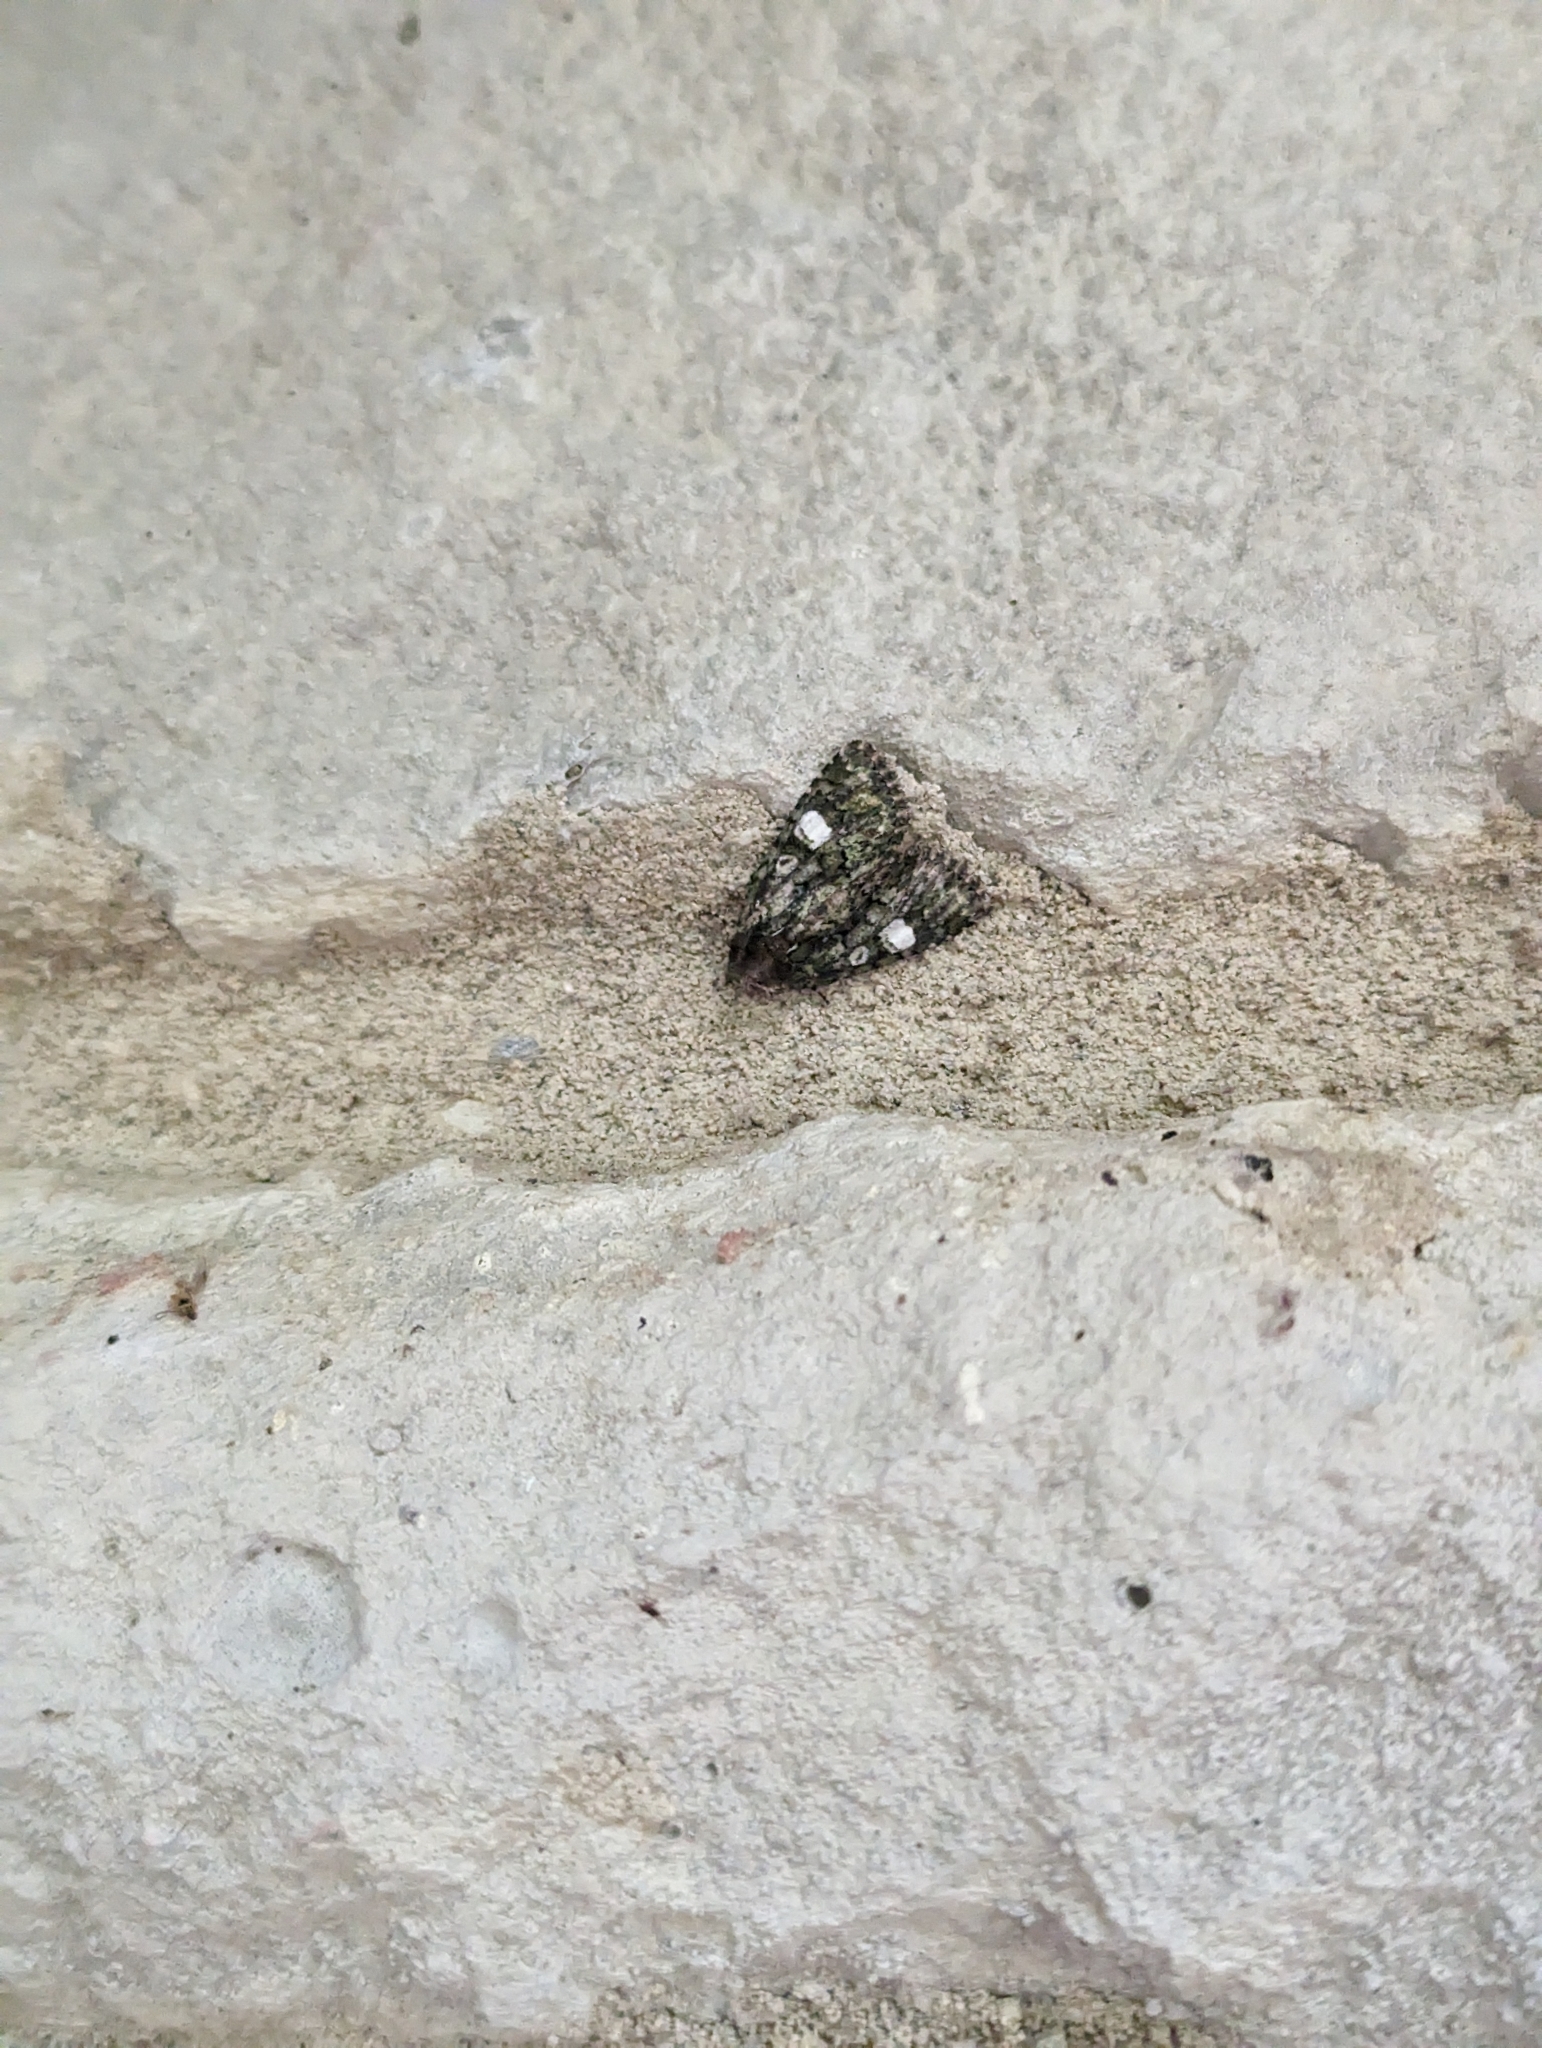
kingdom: Animalia
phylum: Arthropoda
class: Insecta
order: Lepidoptera
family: Noctuidae
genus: Phosphila
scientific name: Phosphila miselioides
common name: Spotted phosphila moth
